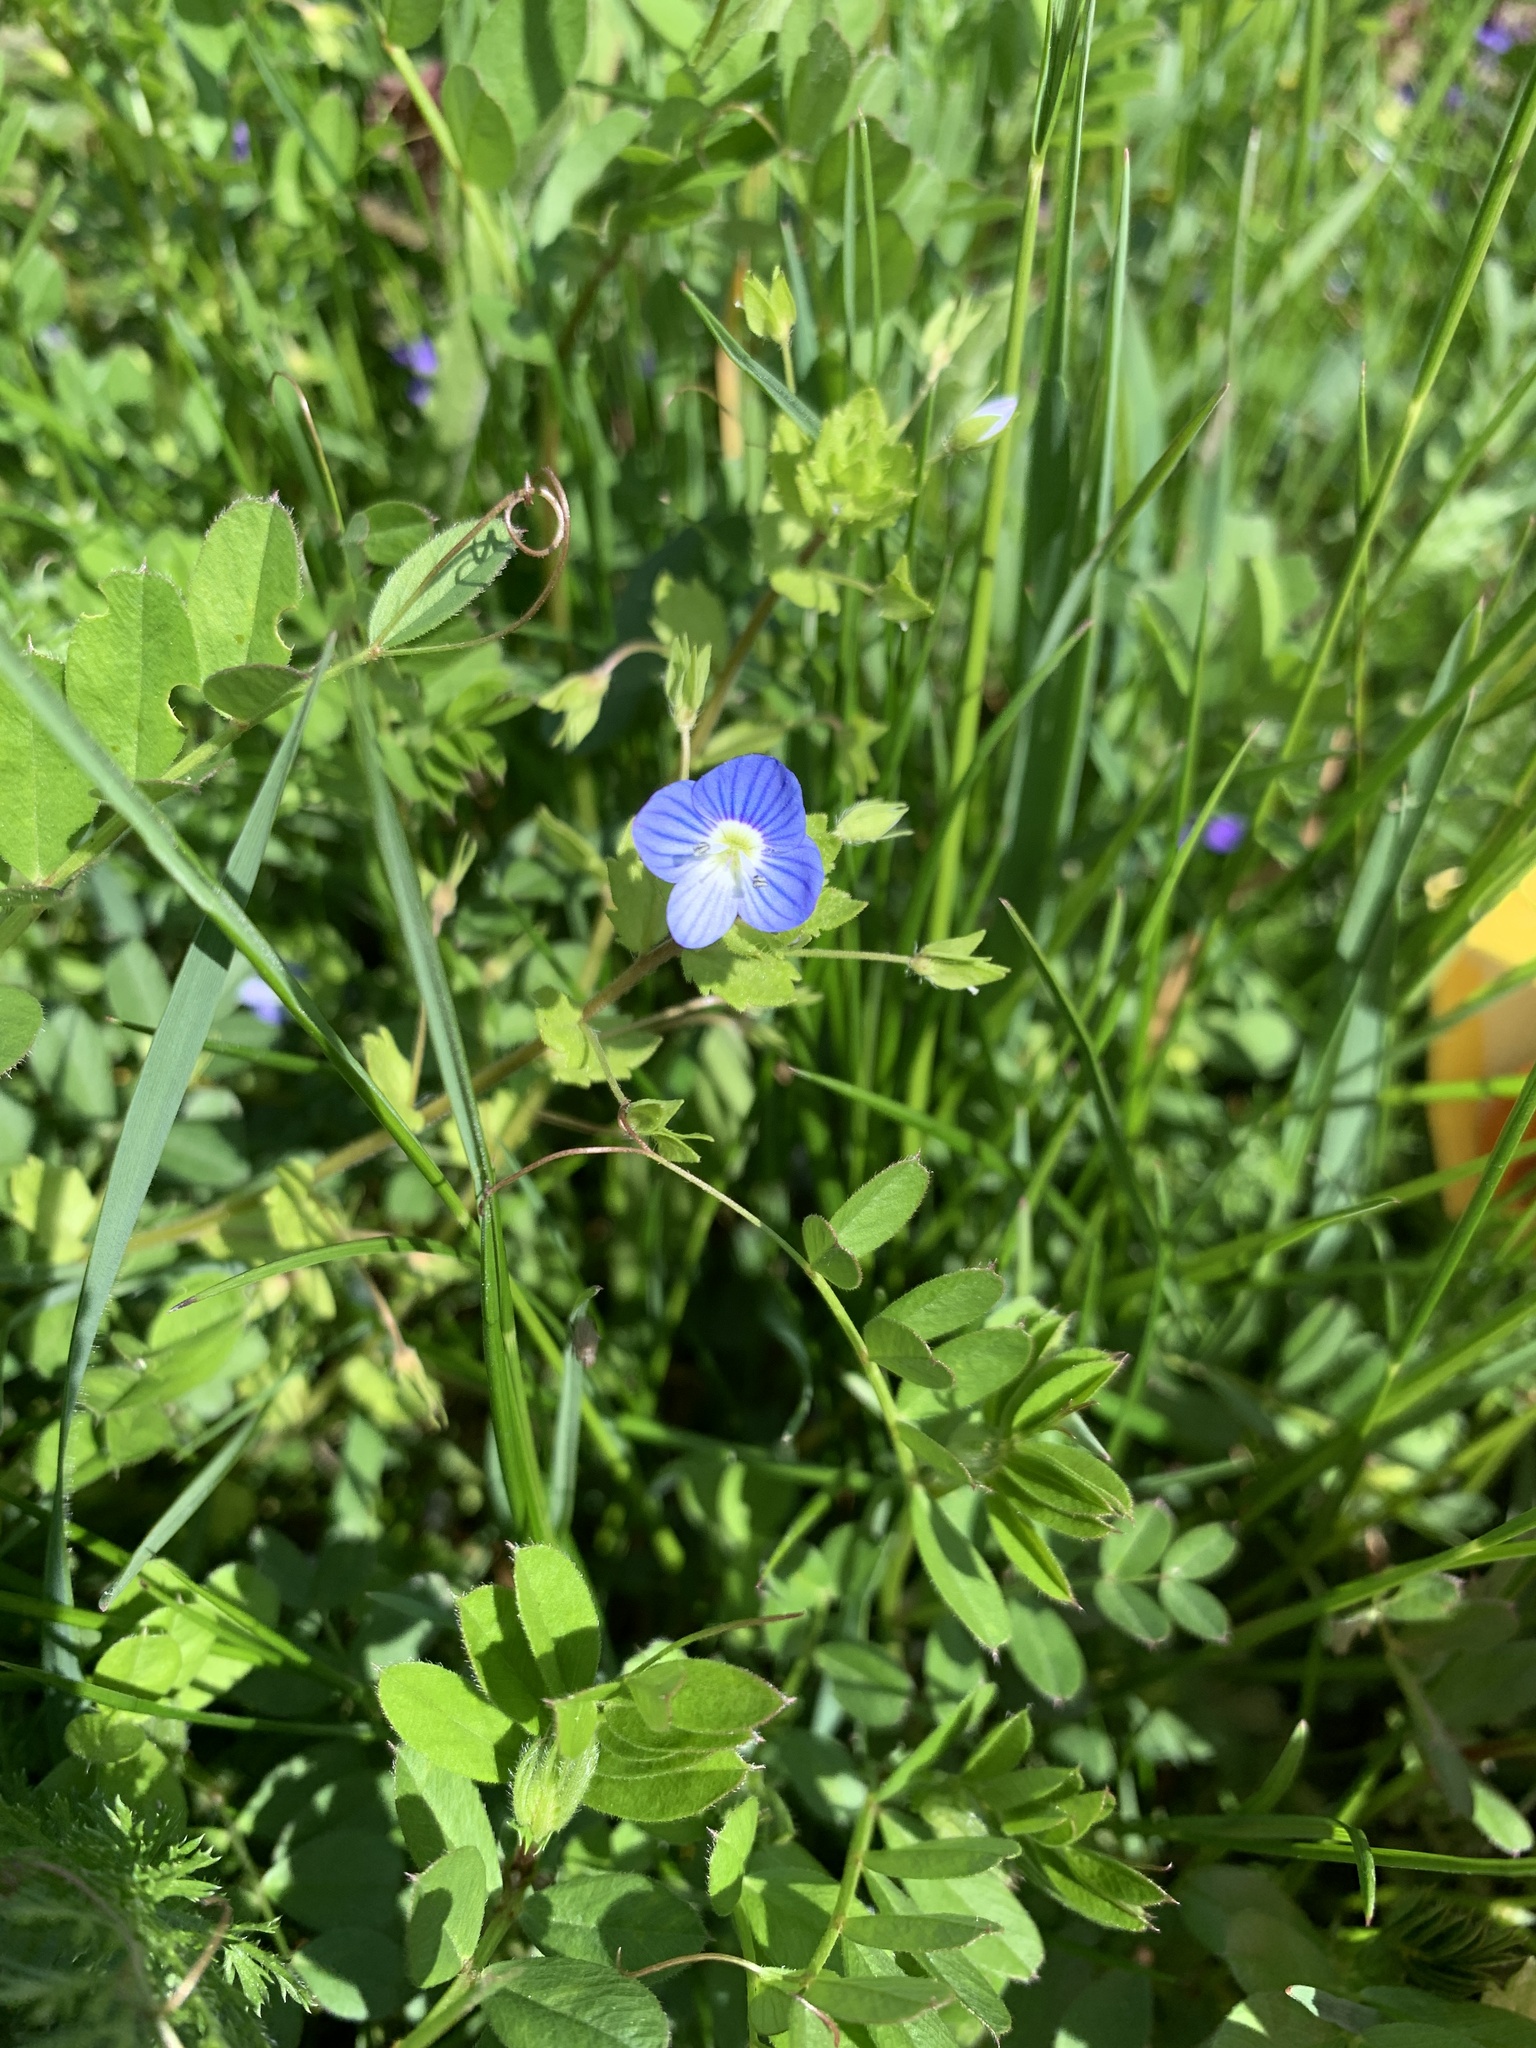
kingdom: Plantae
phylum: Tracheophyta
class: Magnoliopsida
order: Lamiales
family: Plantaginaceae
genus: Veronica
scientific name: Veronica persica
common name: Common field-speedwell
